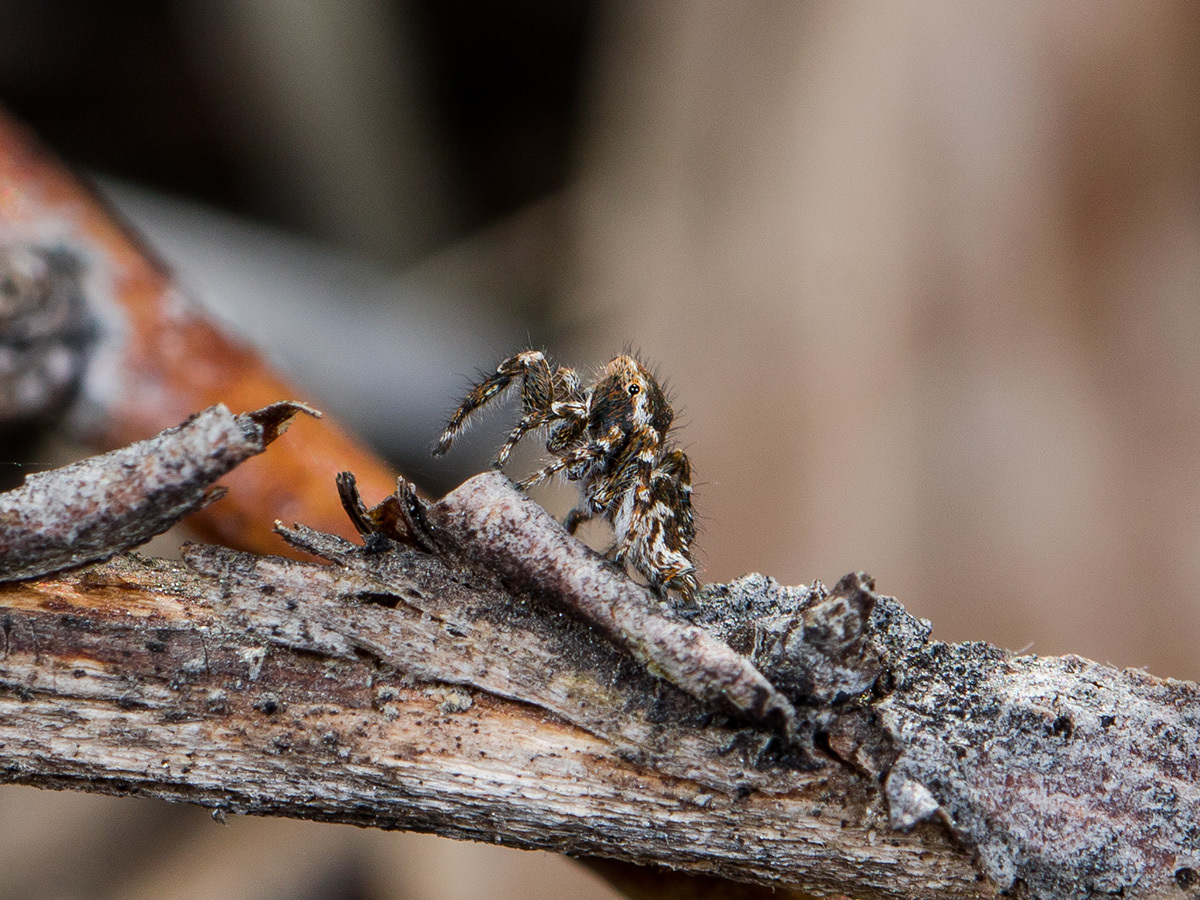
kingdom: Animalia
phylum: Arthropoda
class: Arachnida
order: Araneae
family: Salticidae
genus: Pseudomogrus
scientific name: Pseudomogrus pseudovalidus
